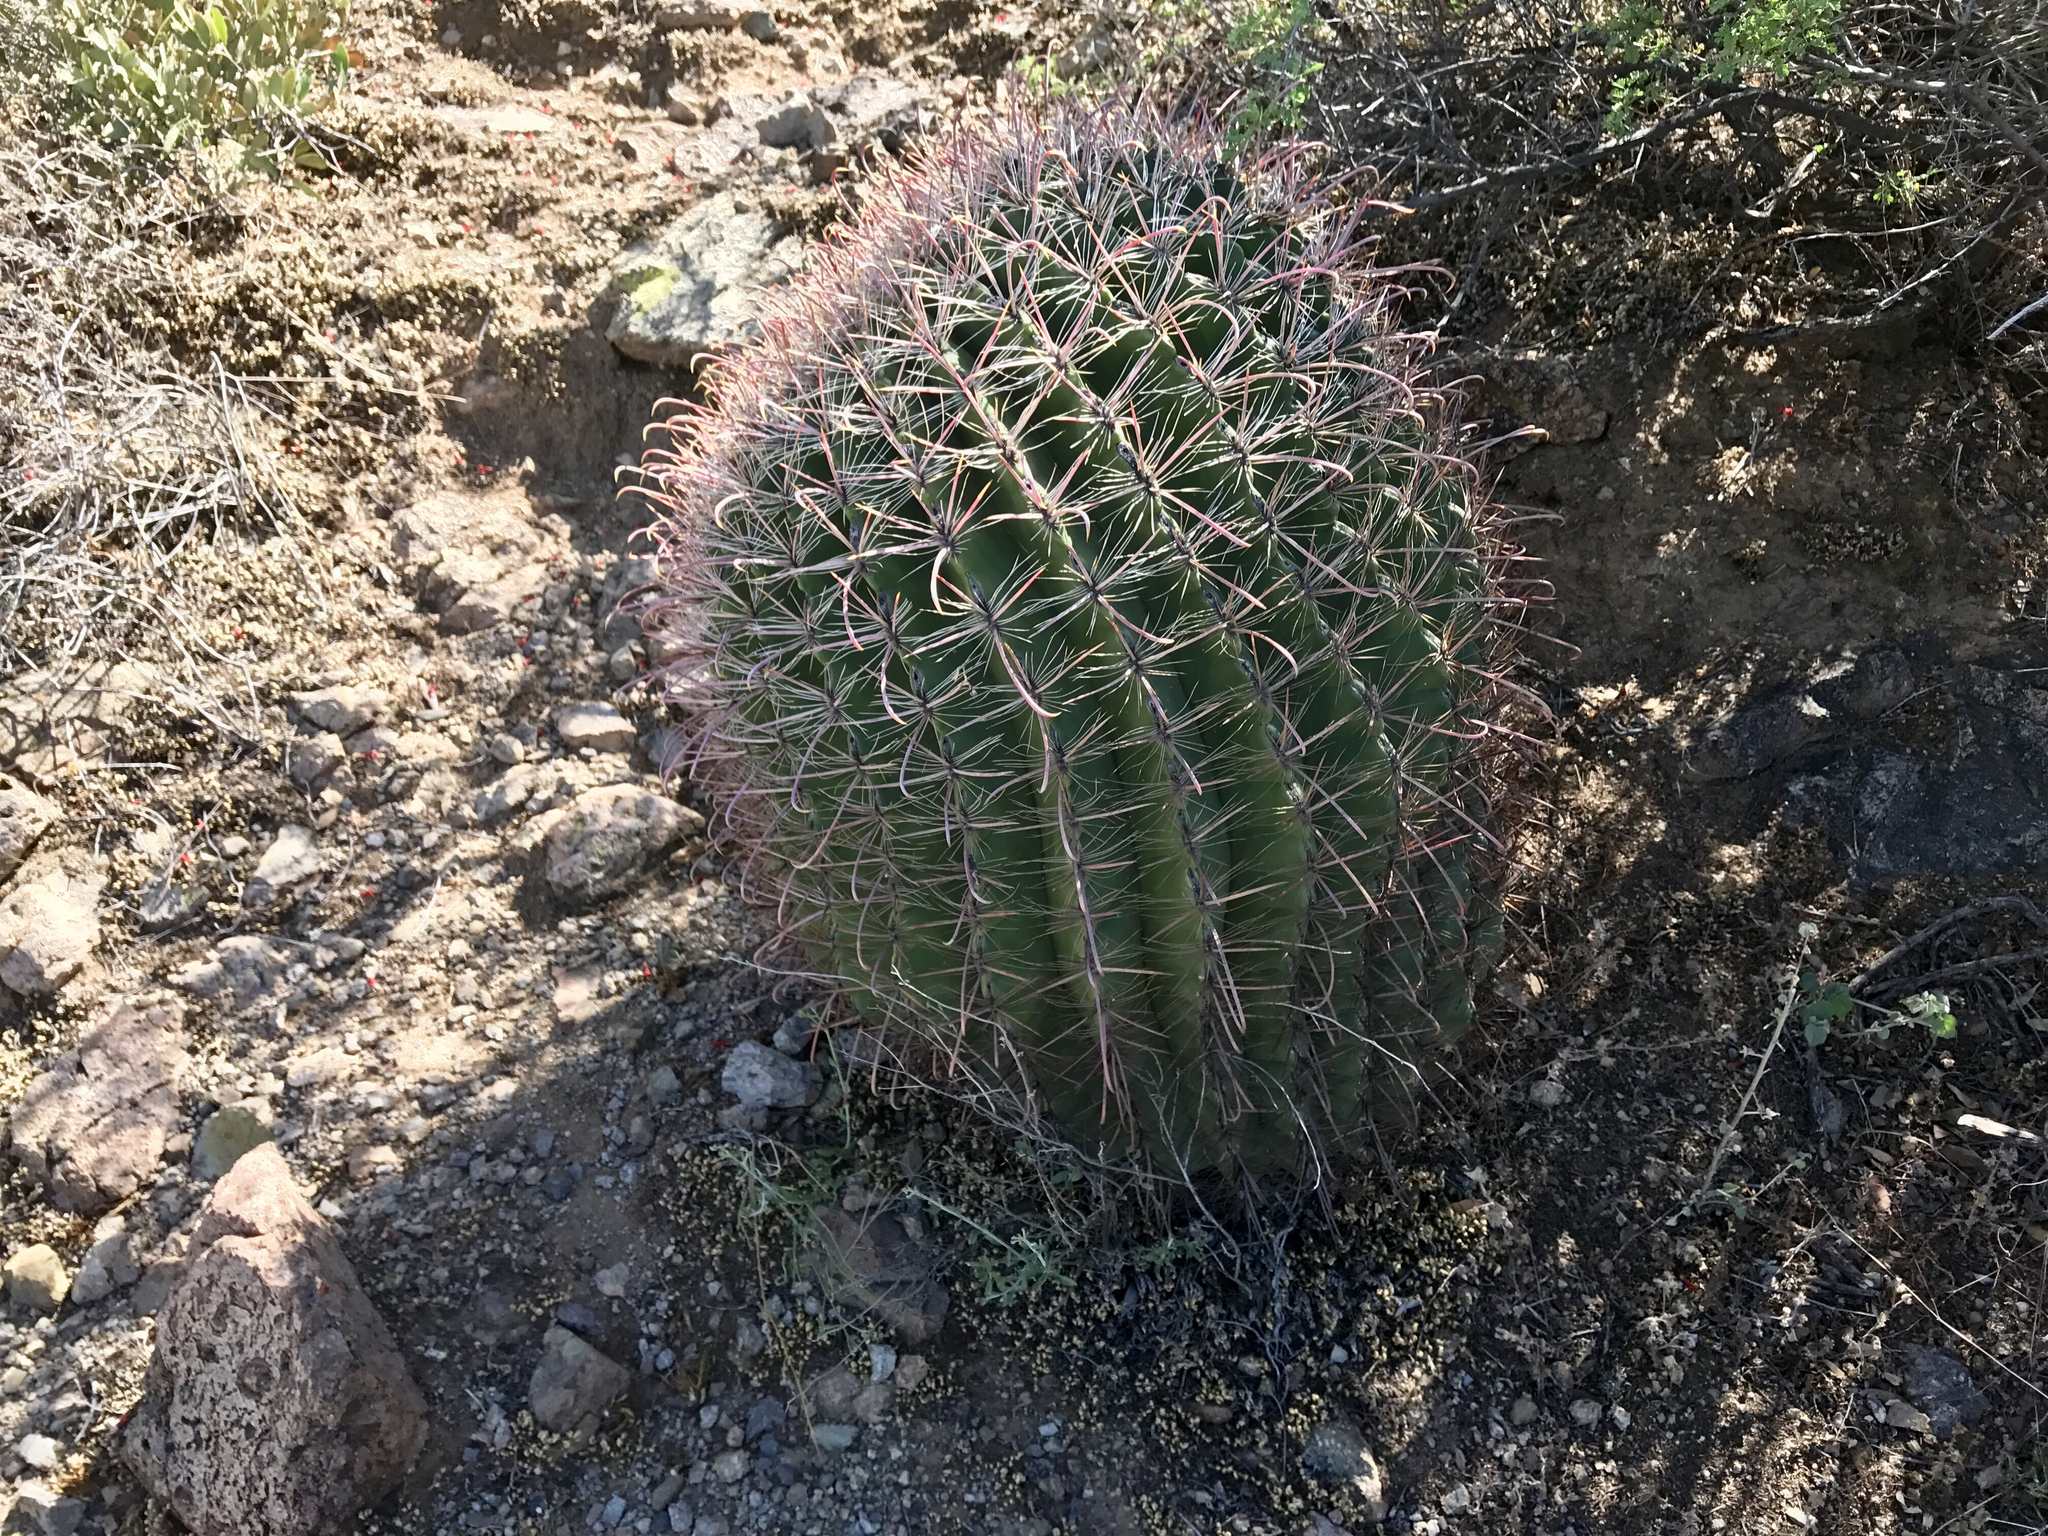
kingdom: Plantae
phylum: Tracheophyta
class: Magnoliopsida
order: Caryophyllales
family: Cactaceae
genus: Ferocactus
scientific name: Ferocactus wislizeni
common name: Candy barrel cactus
